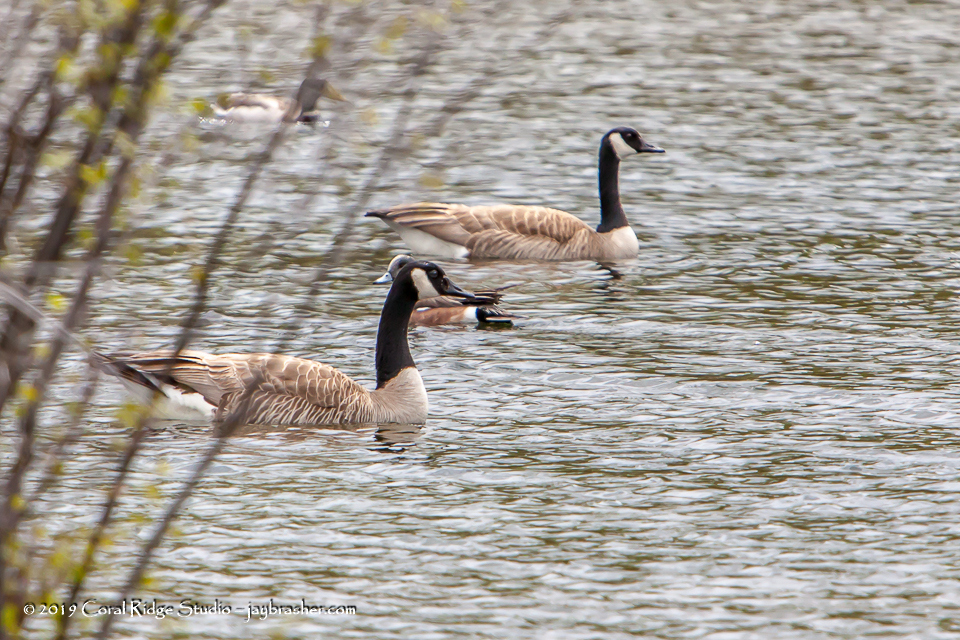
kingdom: Animalia
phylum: Chordata
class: Aves
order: Anseriformes
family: Anatidae
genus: Branta
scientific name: Branta canadensis
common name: Canada goose
